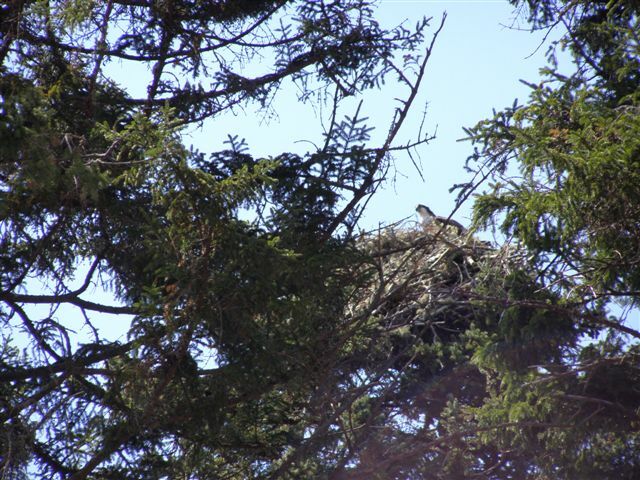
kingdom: Animalia
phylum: Chordata
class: Aves
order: Accipitriformes
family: Pandionidae
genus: Pandion
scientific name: Pandion haliaetus
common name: Osprey
